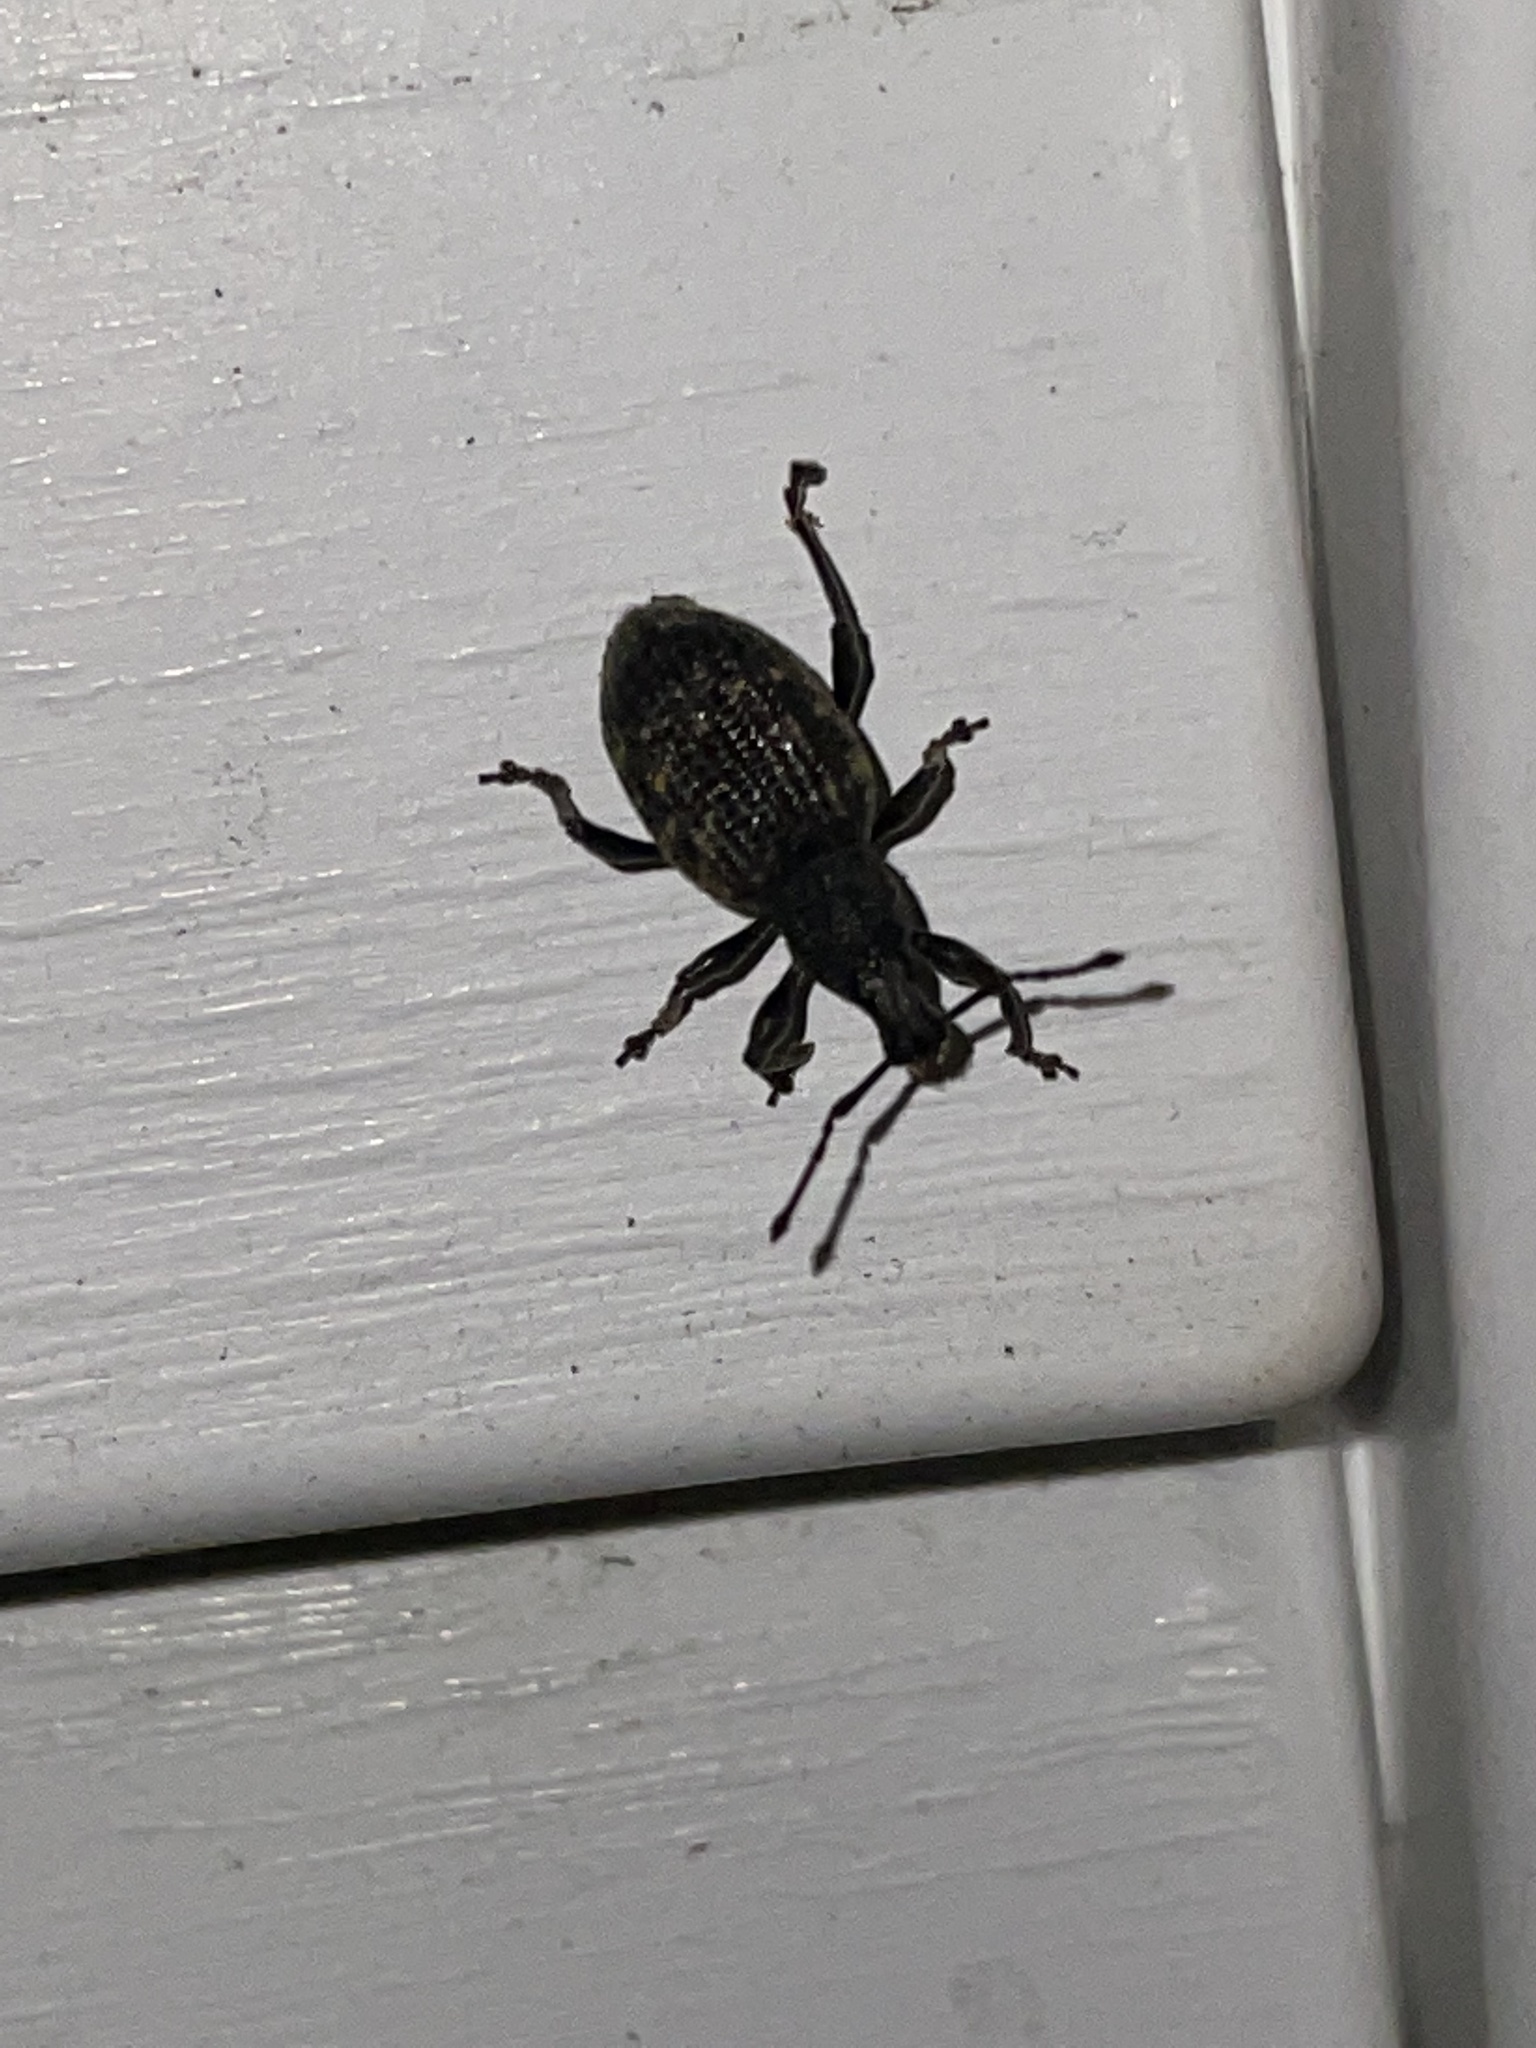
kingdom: Animalia
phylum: Arthropoda
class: Insecta
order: Coleoptera
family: Curculionidae
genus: Otiorhynchus
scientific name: Otiorhynchus sulcatus
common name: Black vine weevil
